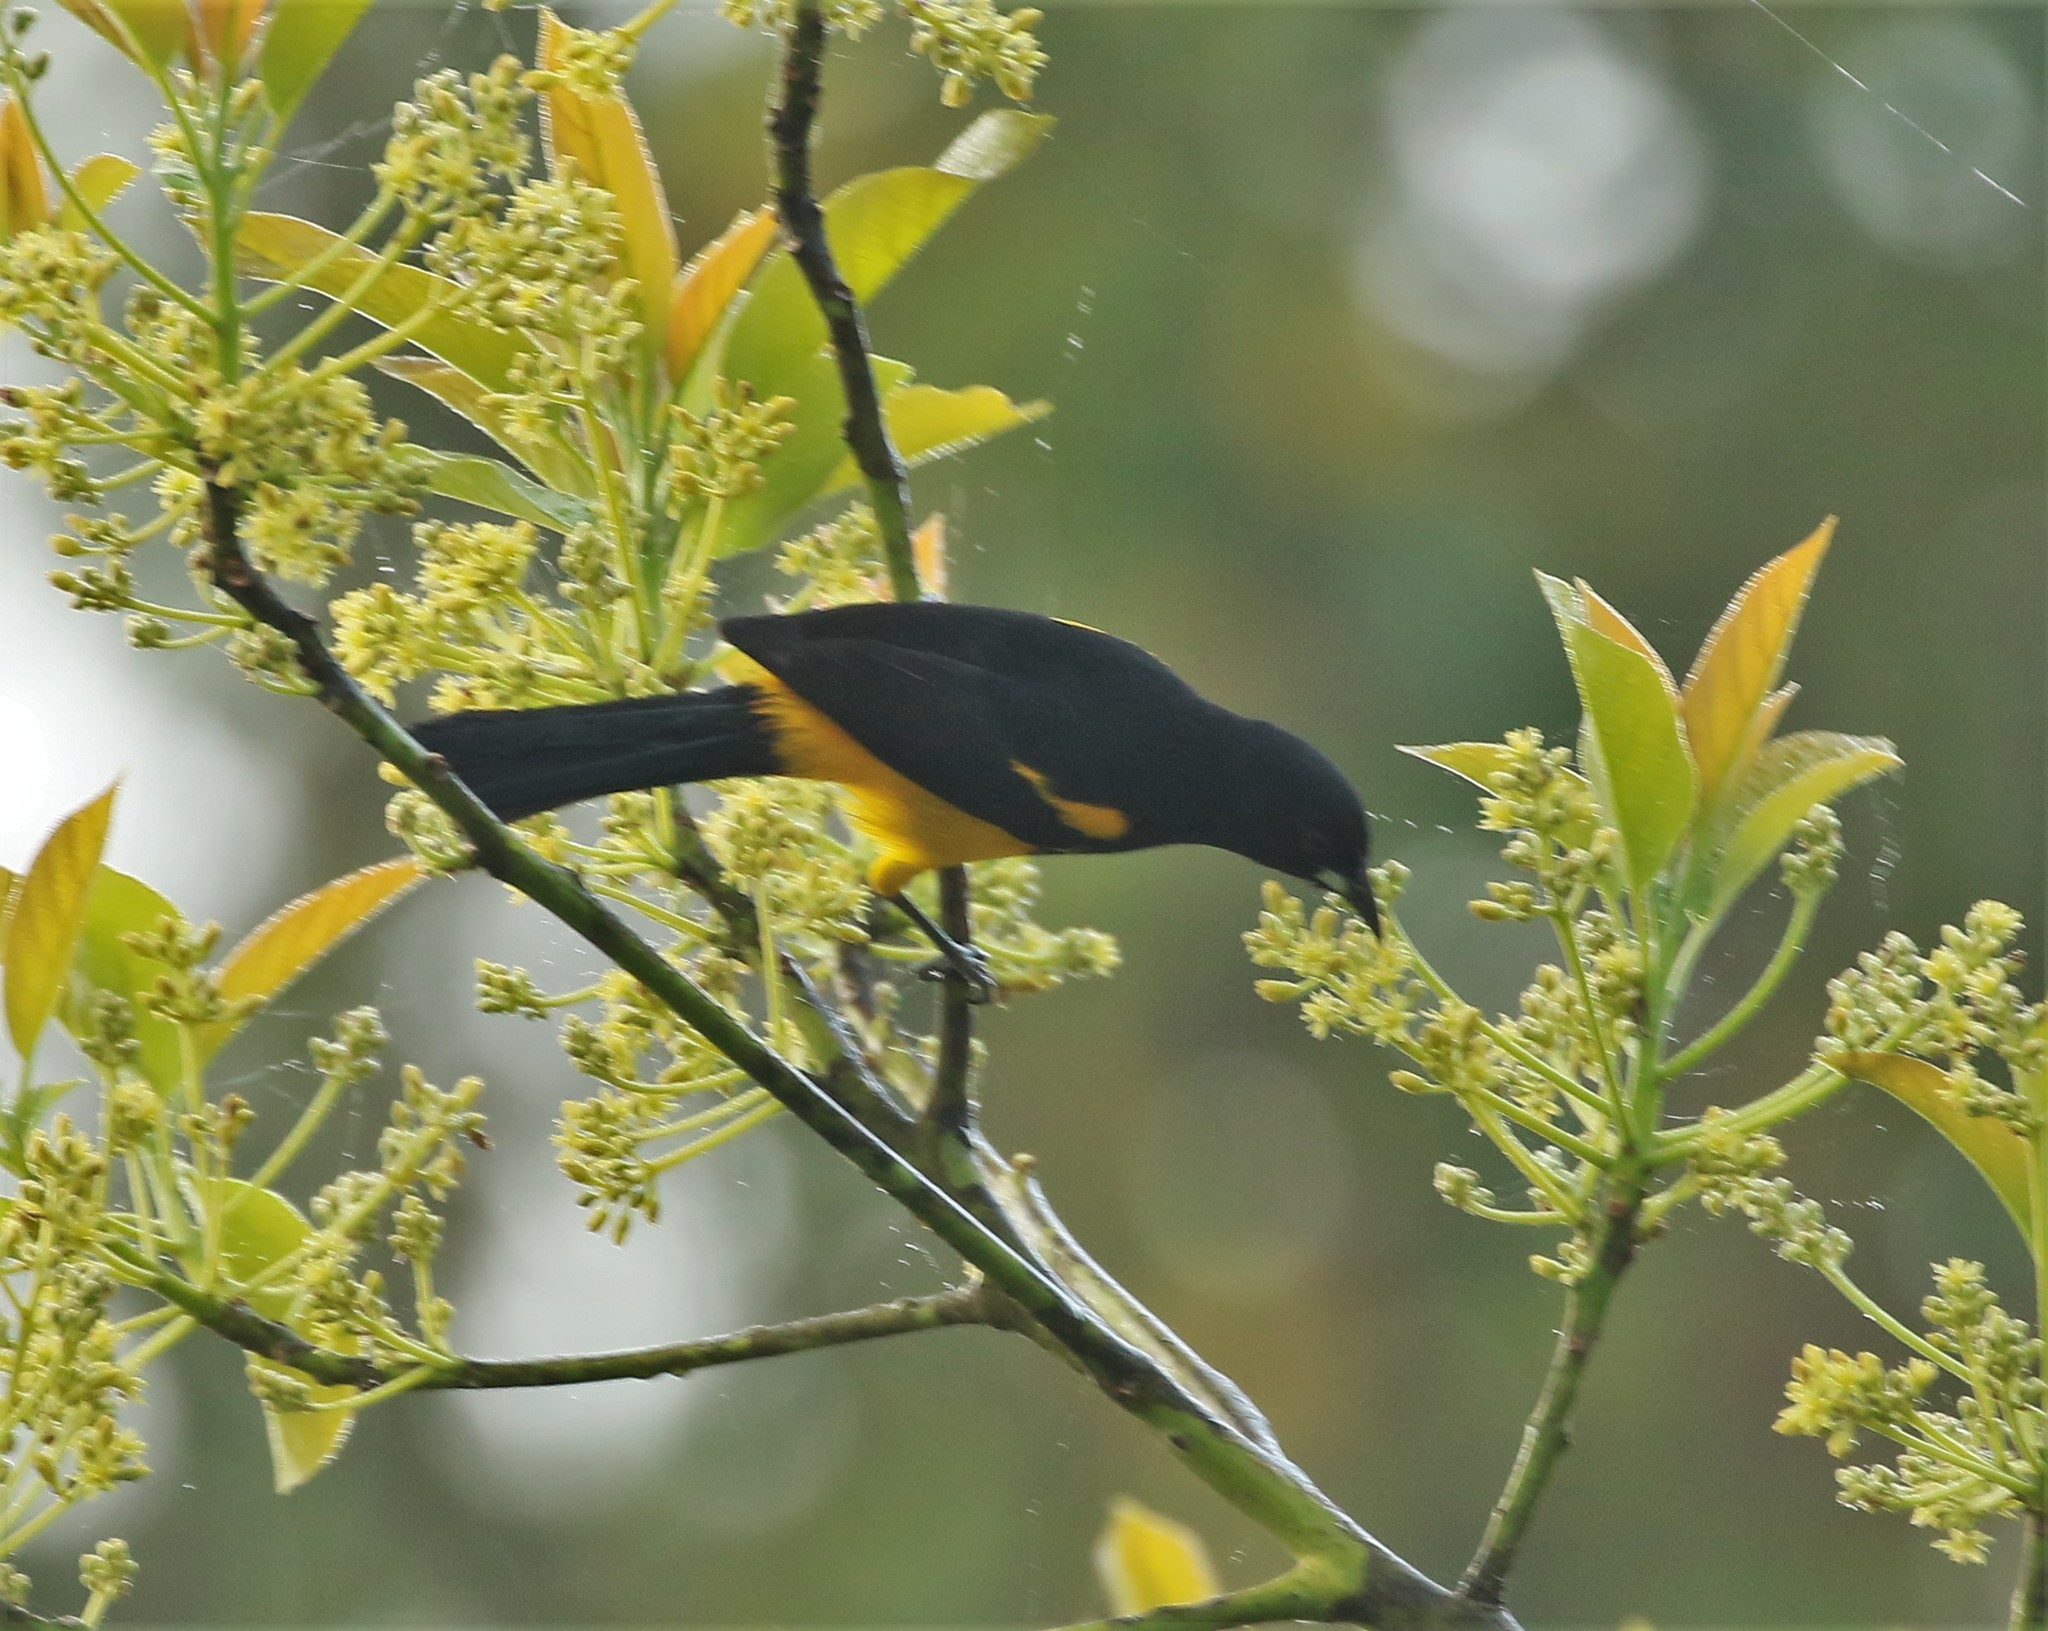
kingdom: Animalia
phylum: Chordata
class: Aves
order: Passeriformes
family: Icteridae
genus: Icterus
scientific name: Icterus prosthemelas
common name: Black-cowled oriole
